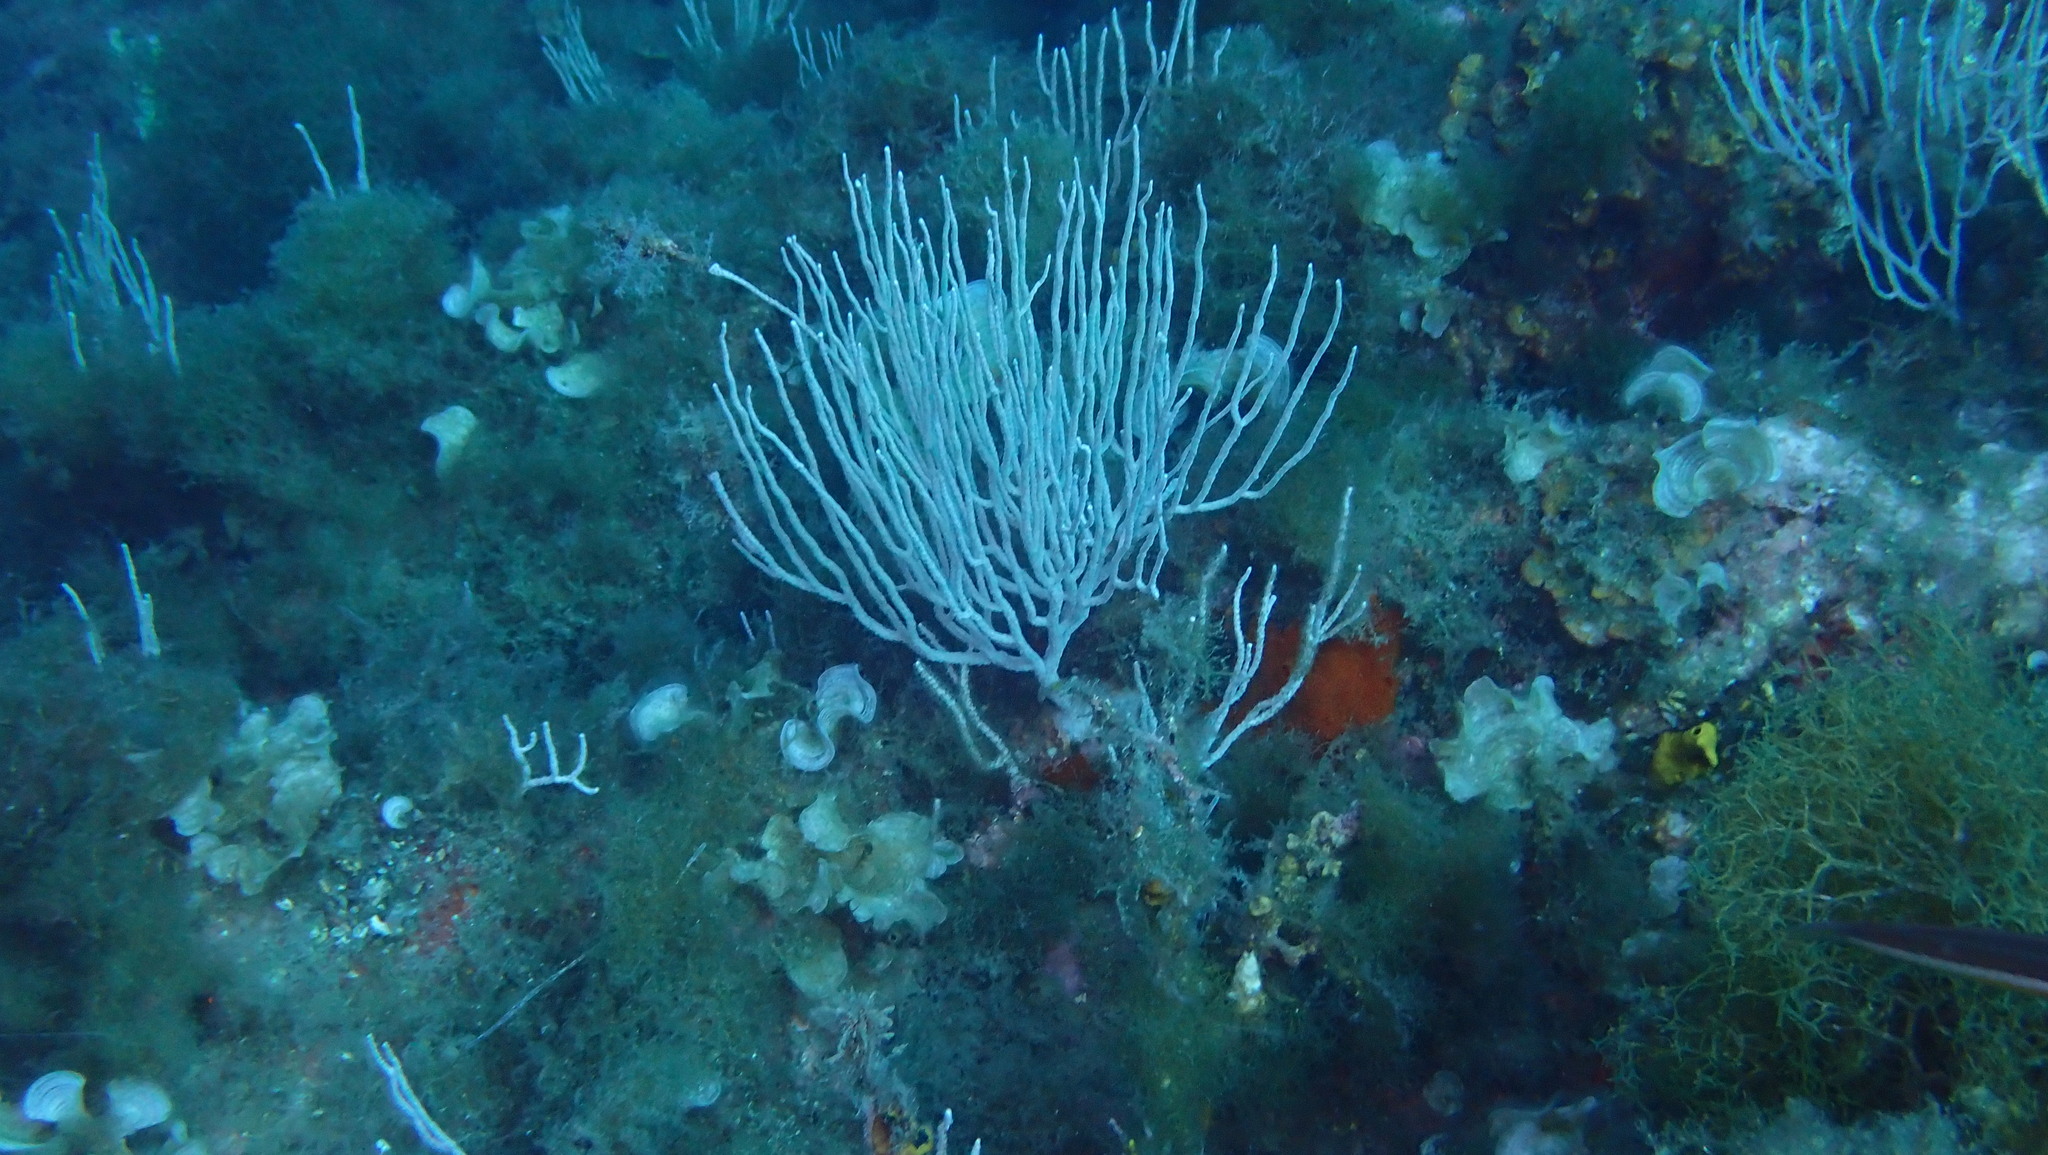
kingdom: Animalia
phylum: Cnidaria
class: Anthozoa
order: Malacalcyonacea
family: Eunicellidae
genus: Eunicella
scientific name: Eunicella singularis
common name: White horny coral
